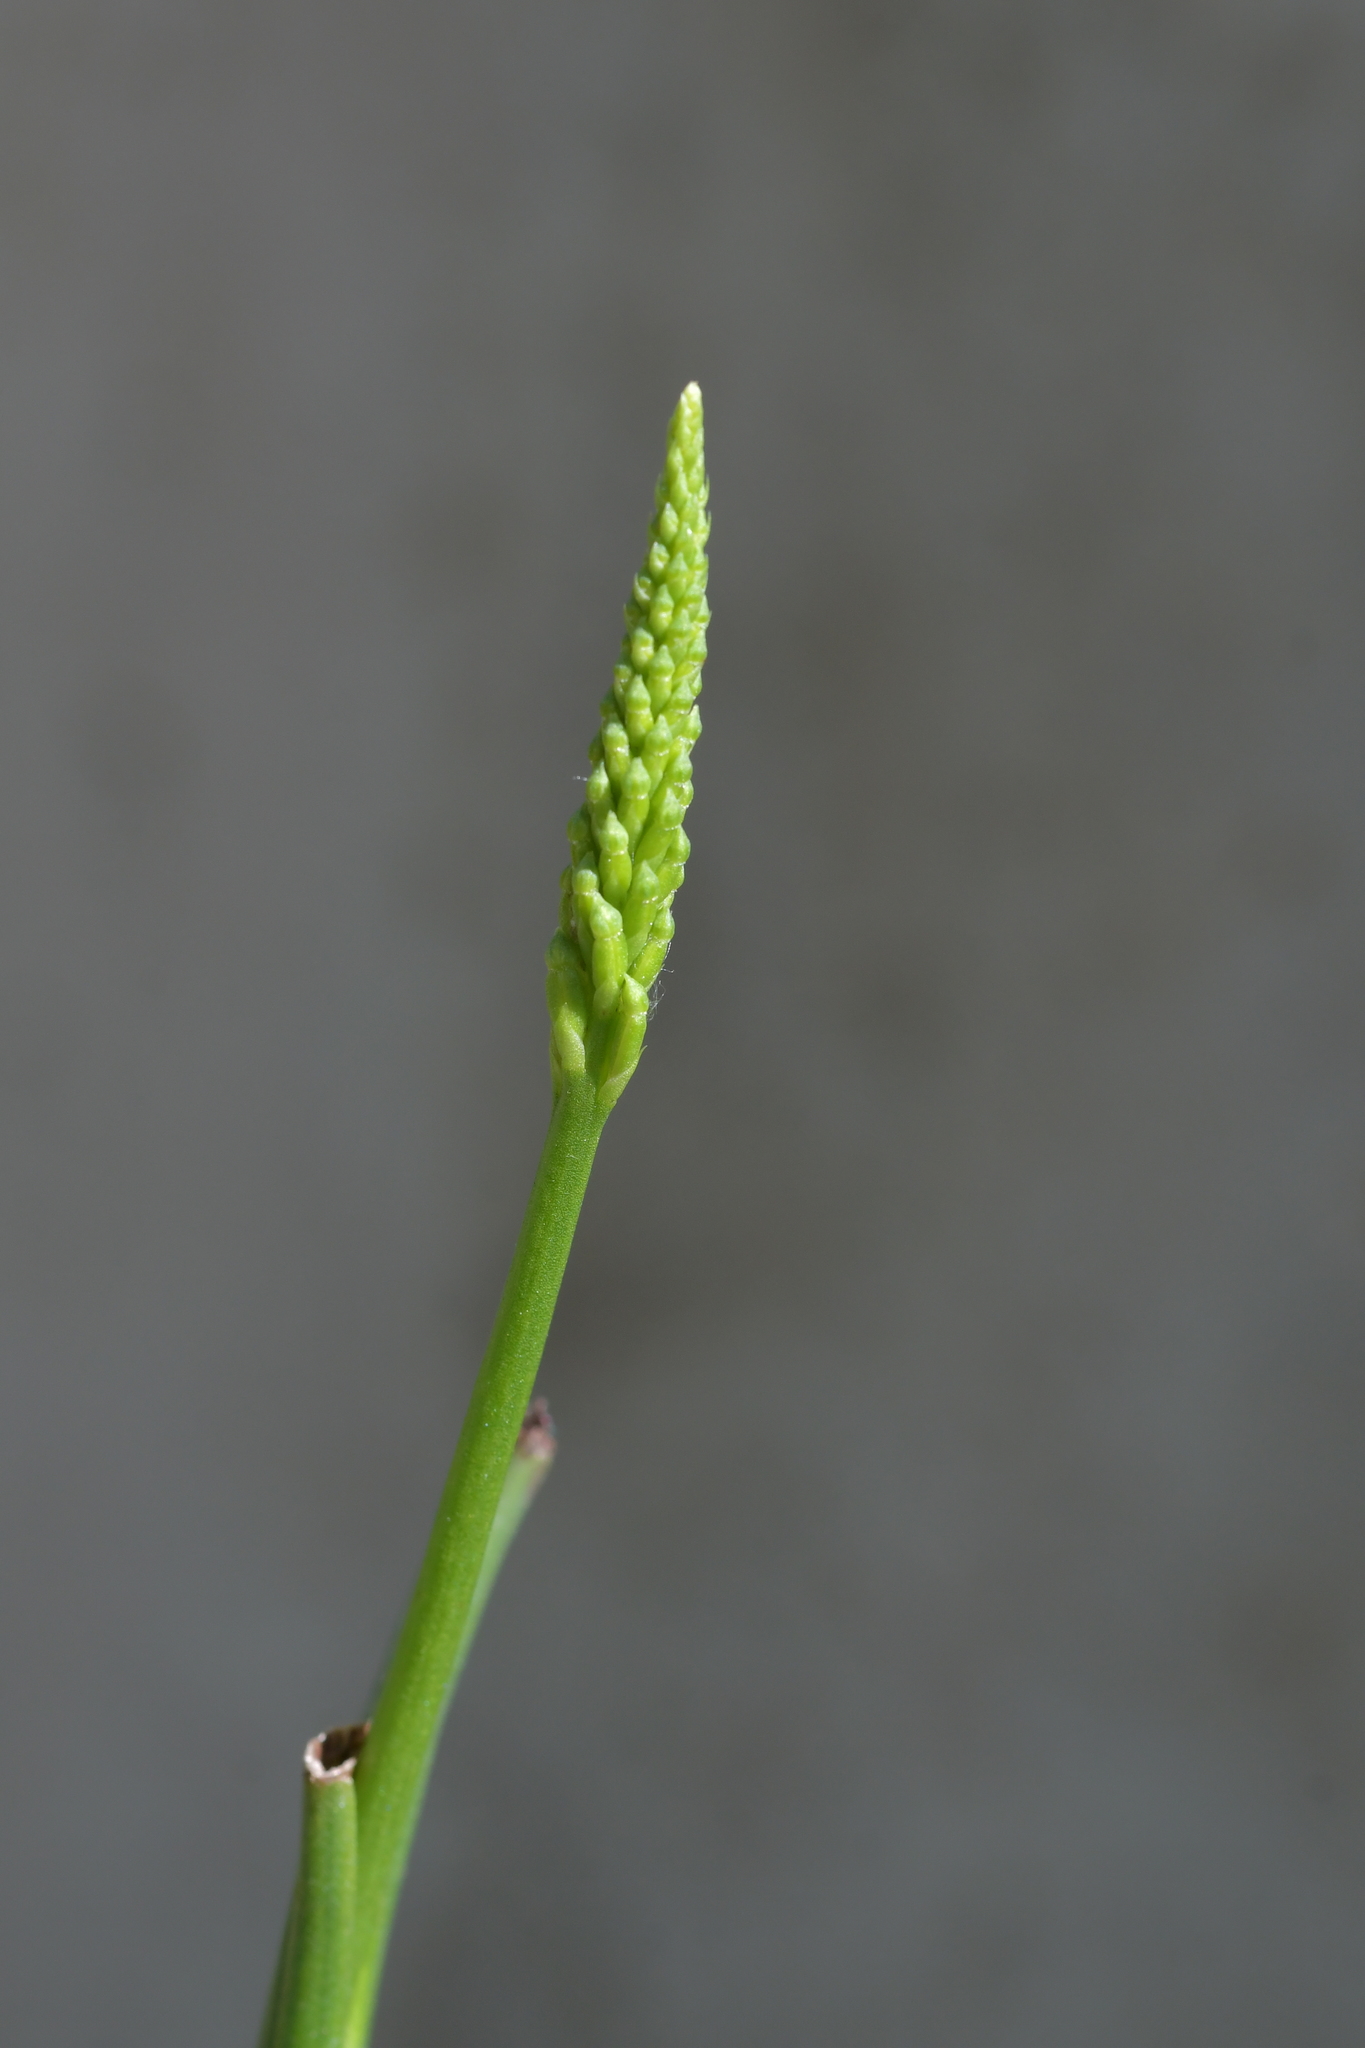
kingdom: Plantae
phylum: Tracheophyta
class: Liliopsida
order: Asparagales
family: Orchidaceae
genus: Microtis
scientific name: Microtis unifolia
